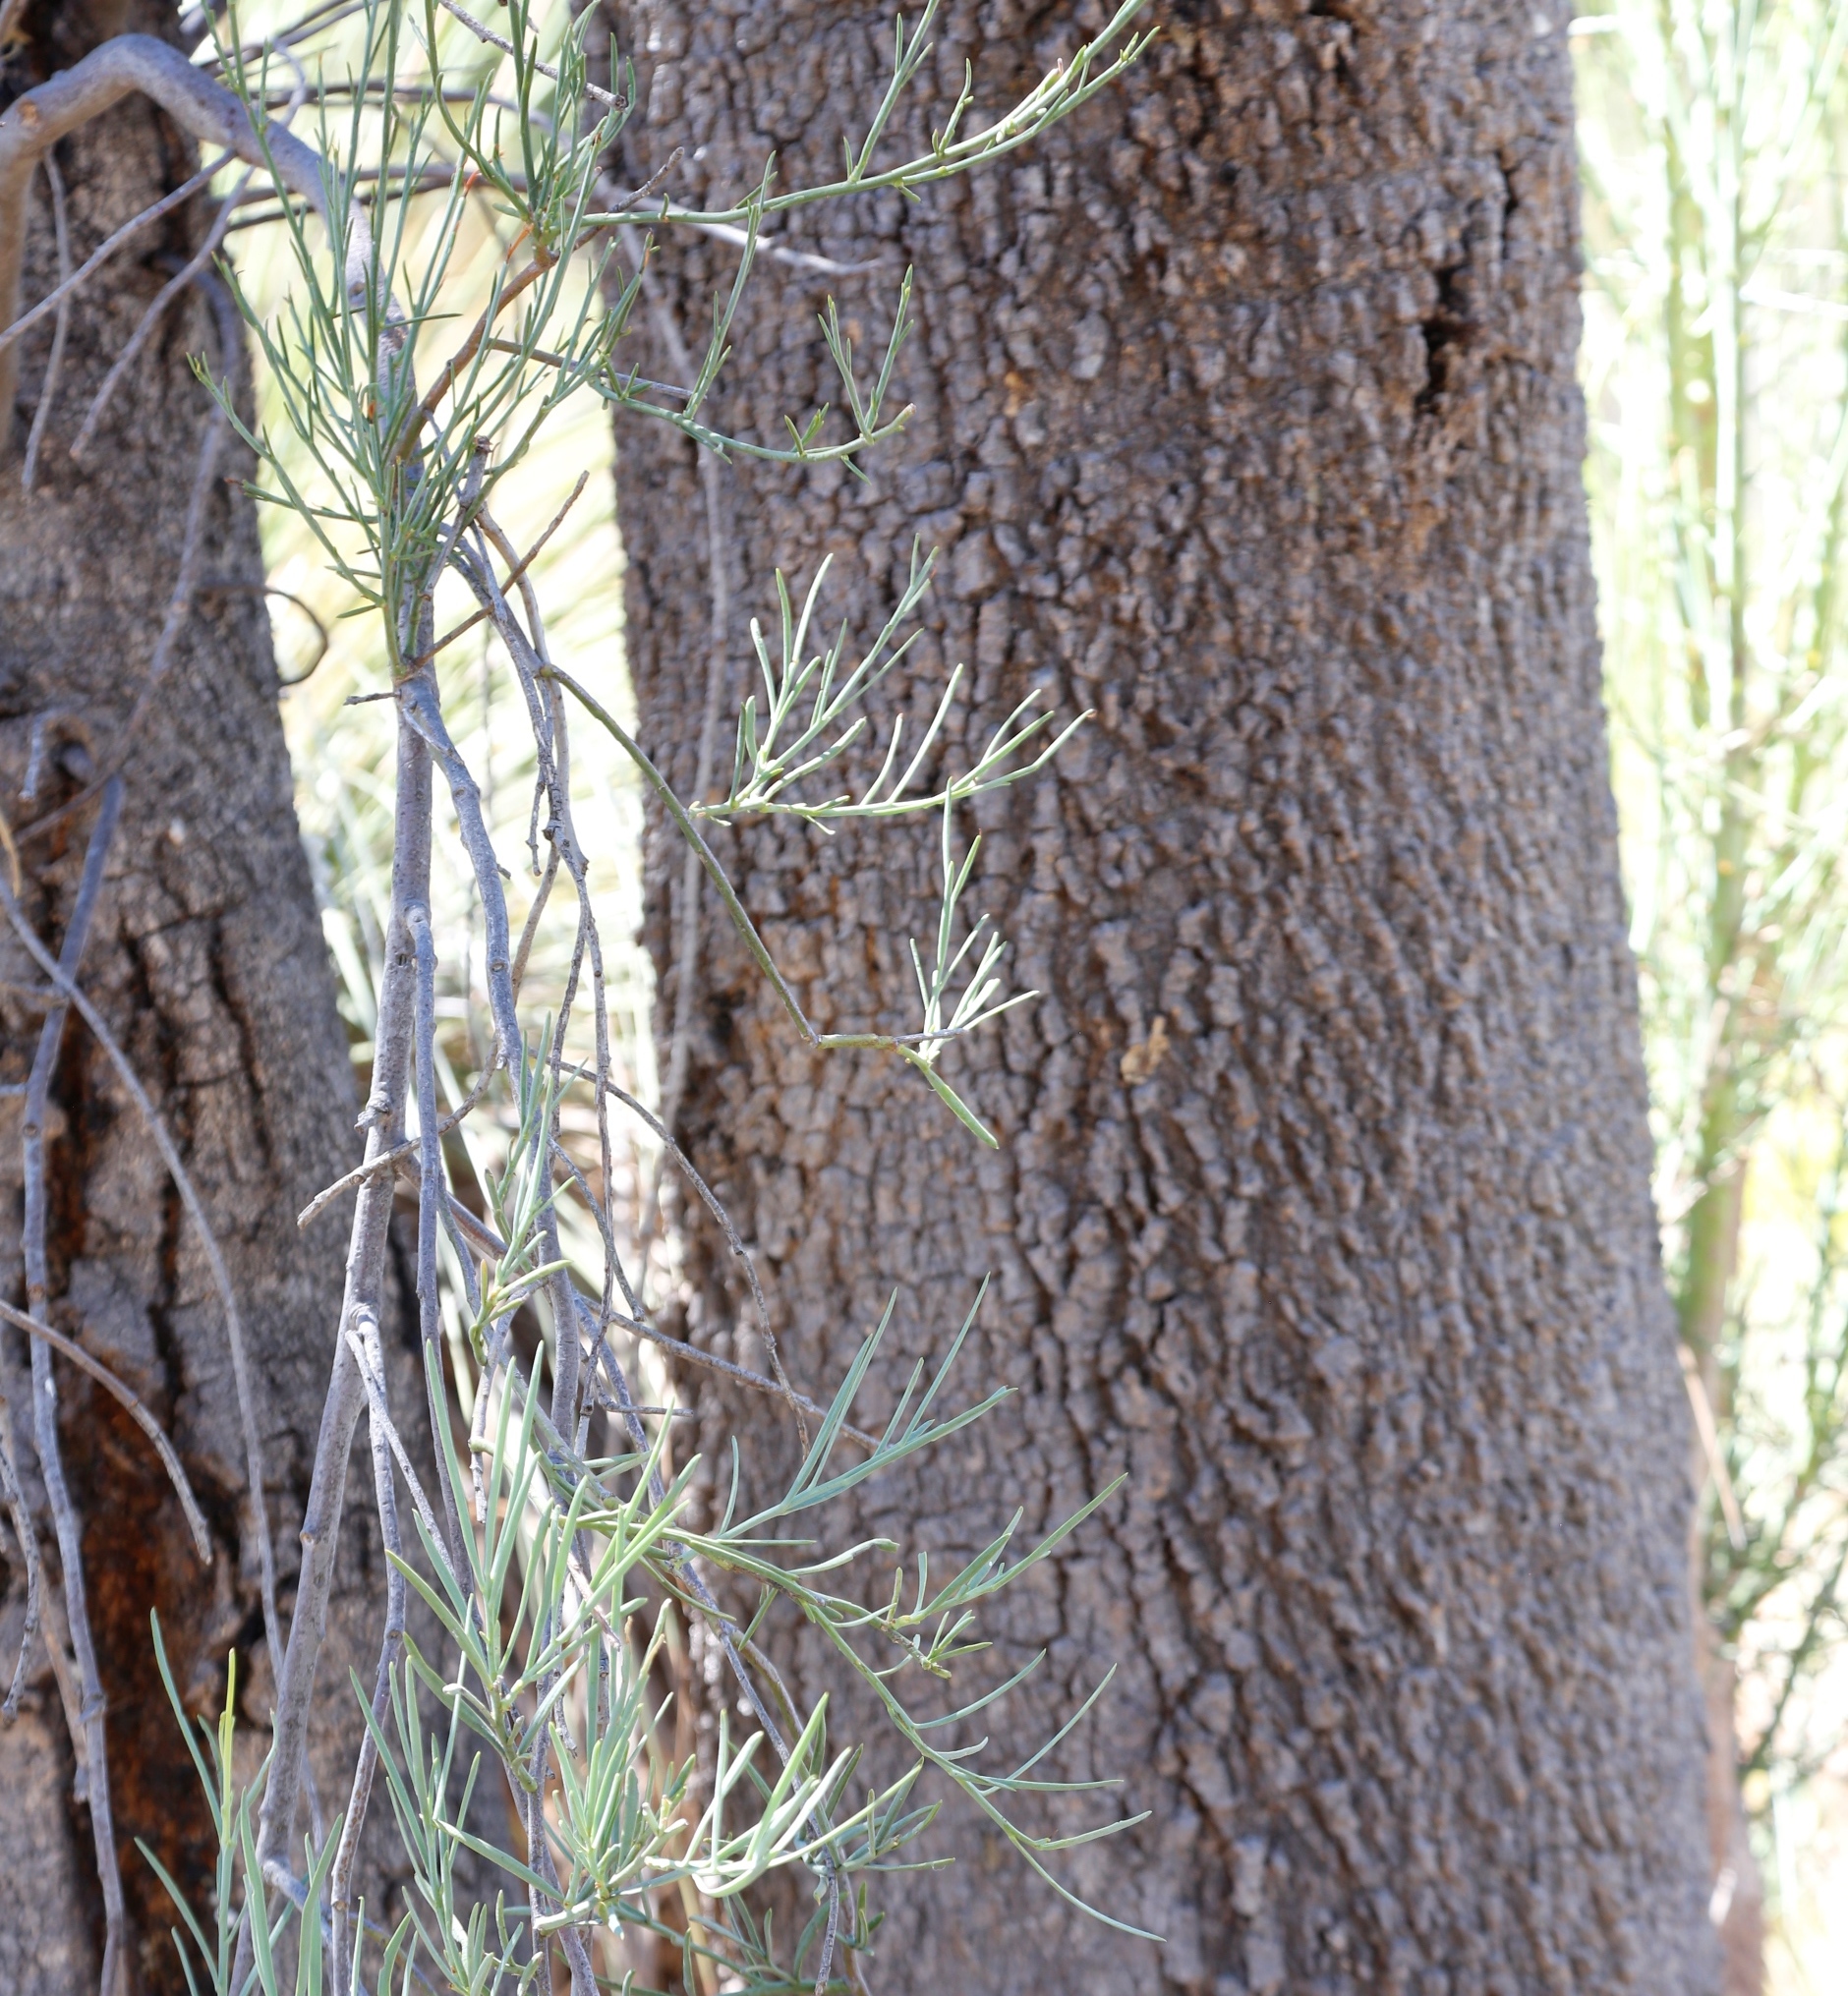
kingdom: Plantae
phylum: Tracheophyta
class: Magnoliopsida
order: Santalales
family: Loranthaceae
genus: Nuytsia
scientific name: Nuytsia floribunda
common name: Western australian christmastree
